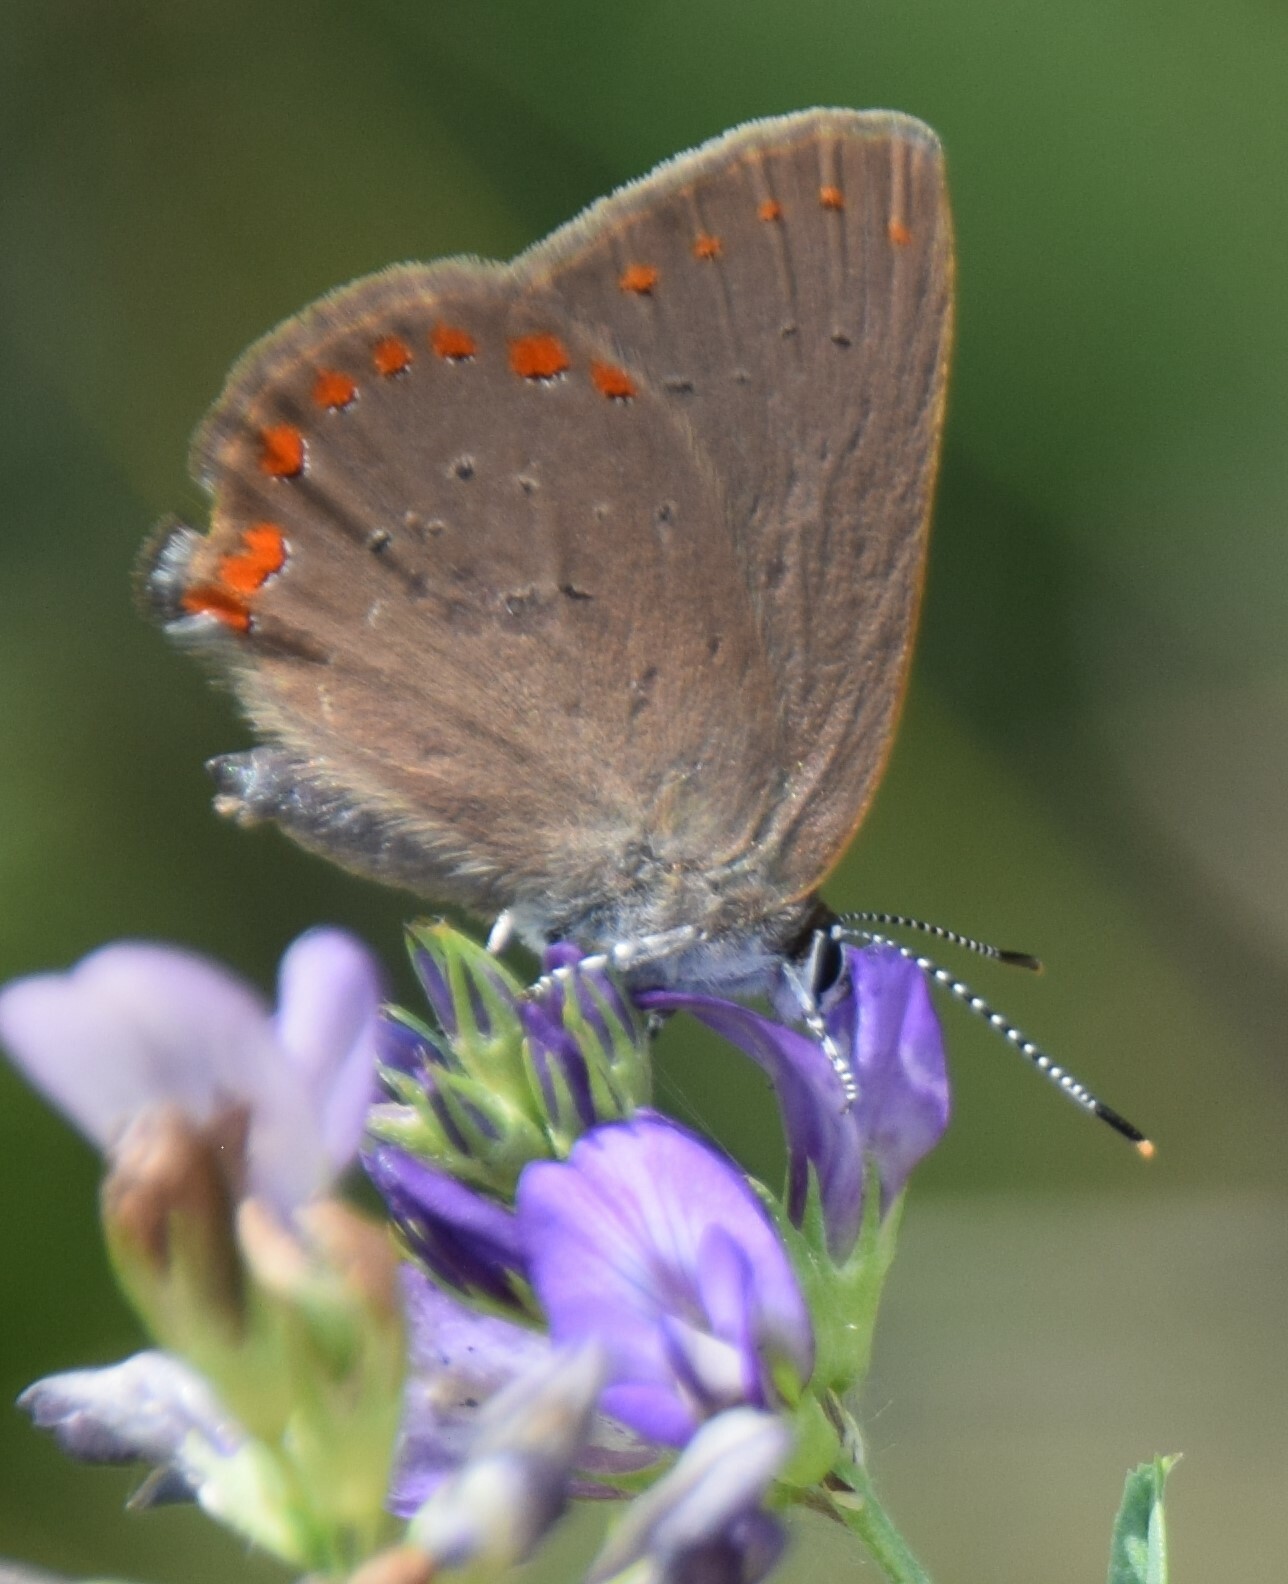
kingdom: Animalia
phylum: Arthropoda
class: Insecta
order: Lepidoptera
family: Lycaenidae
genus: Harkenclenus
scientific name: Harkenclenus titus
